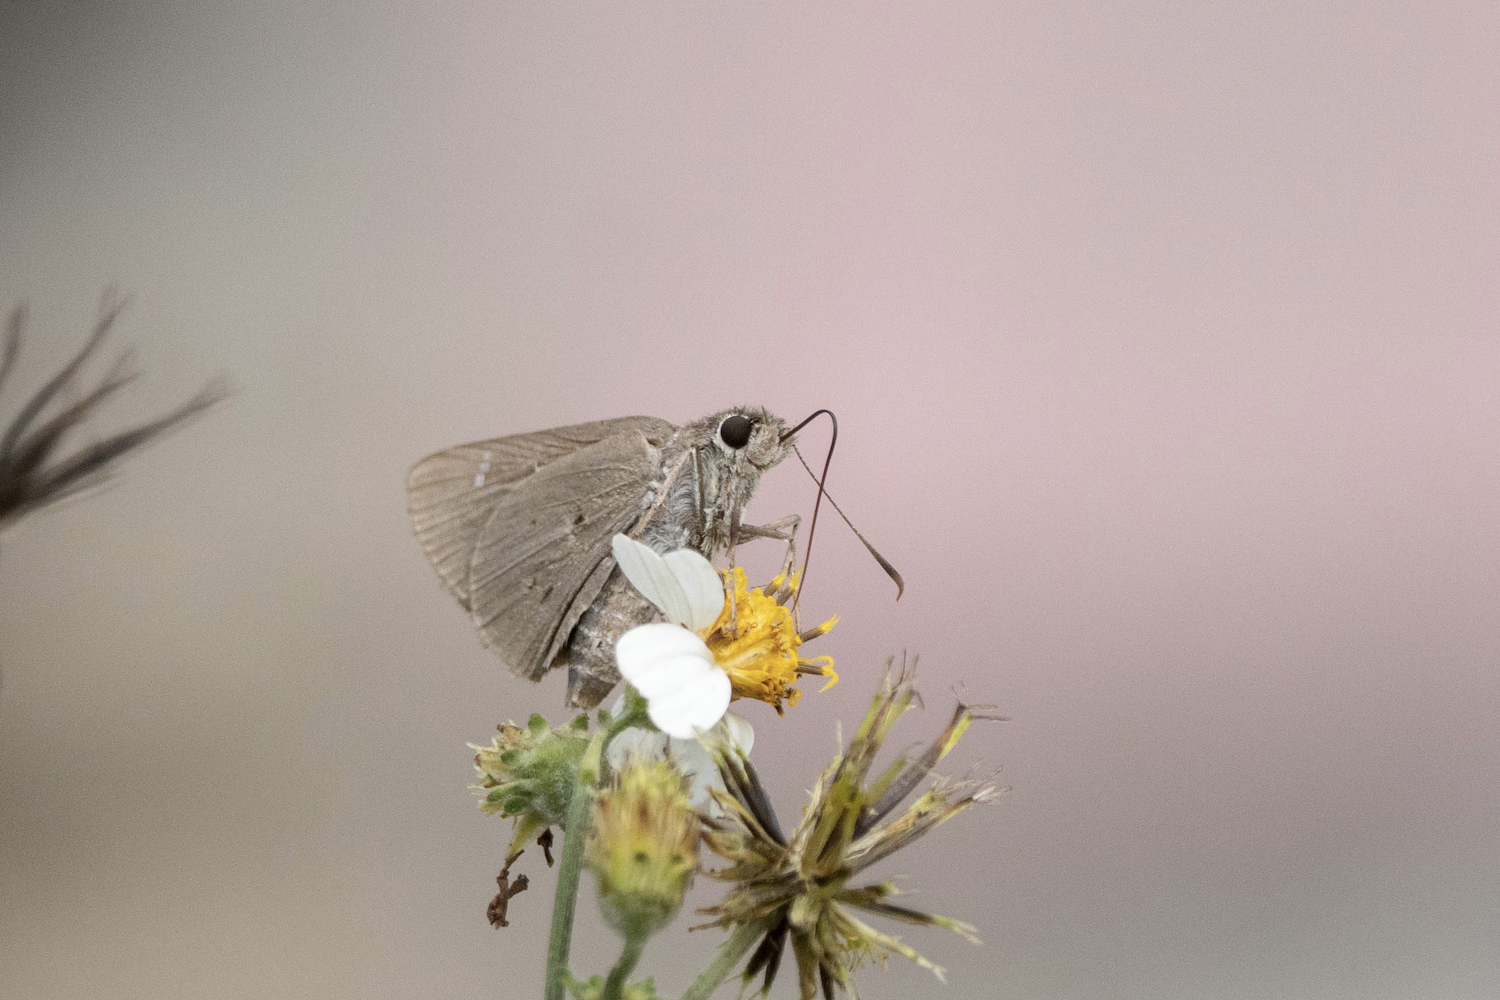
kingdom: Animalia
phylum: Arthropoda
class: Insecta
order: Lepidoptera
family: Hesperiidae
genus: Suastus
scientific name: Suastus gremius
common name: Indian palm bob
